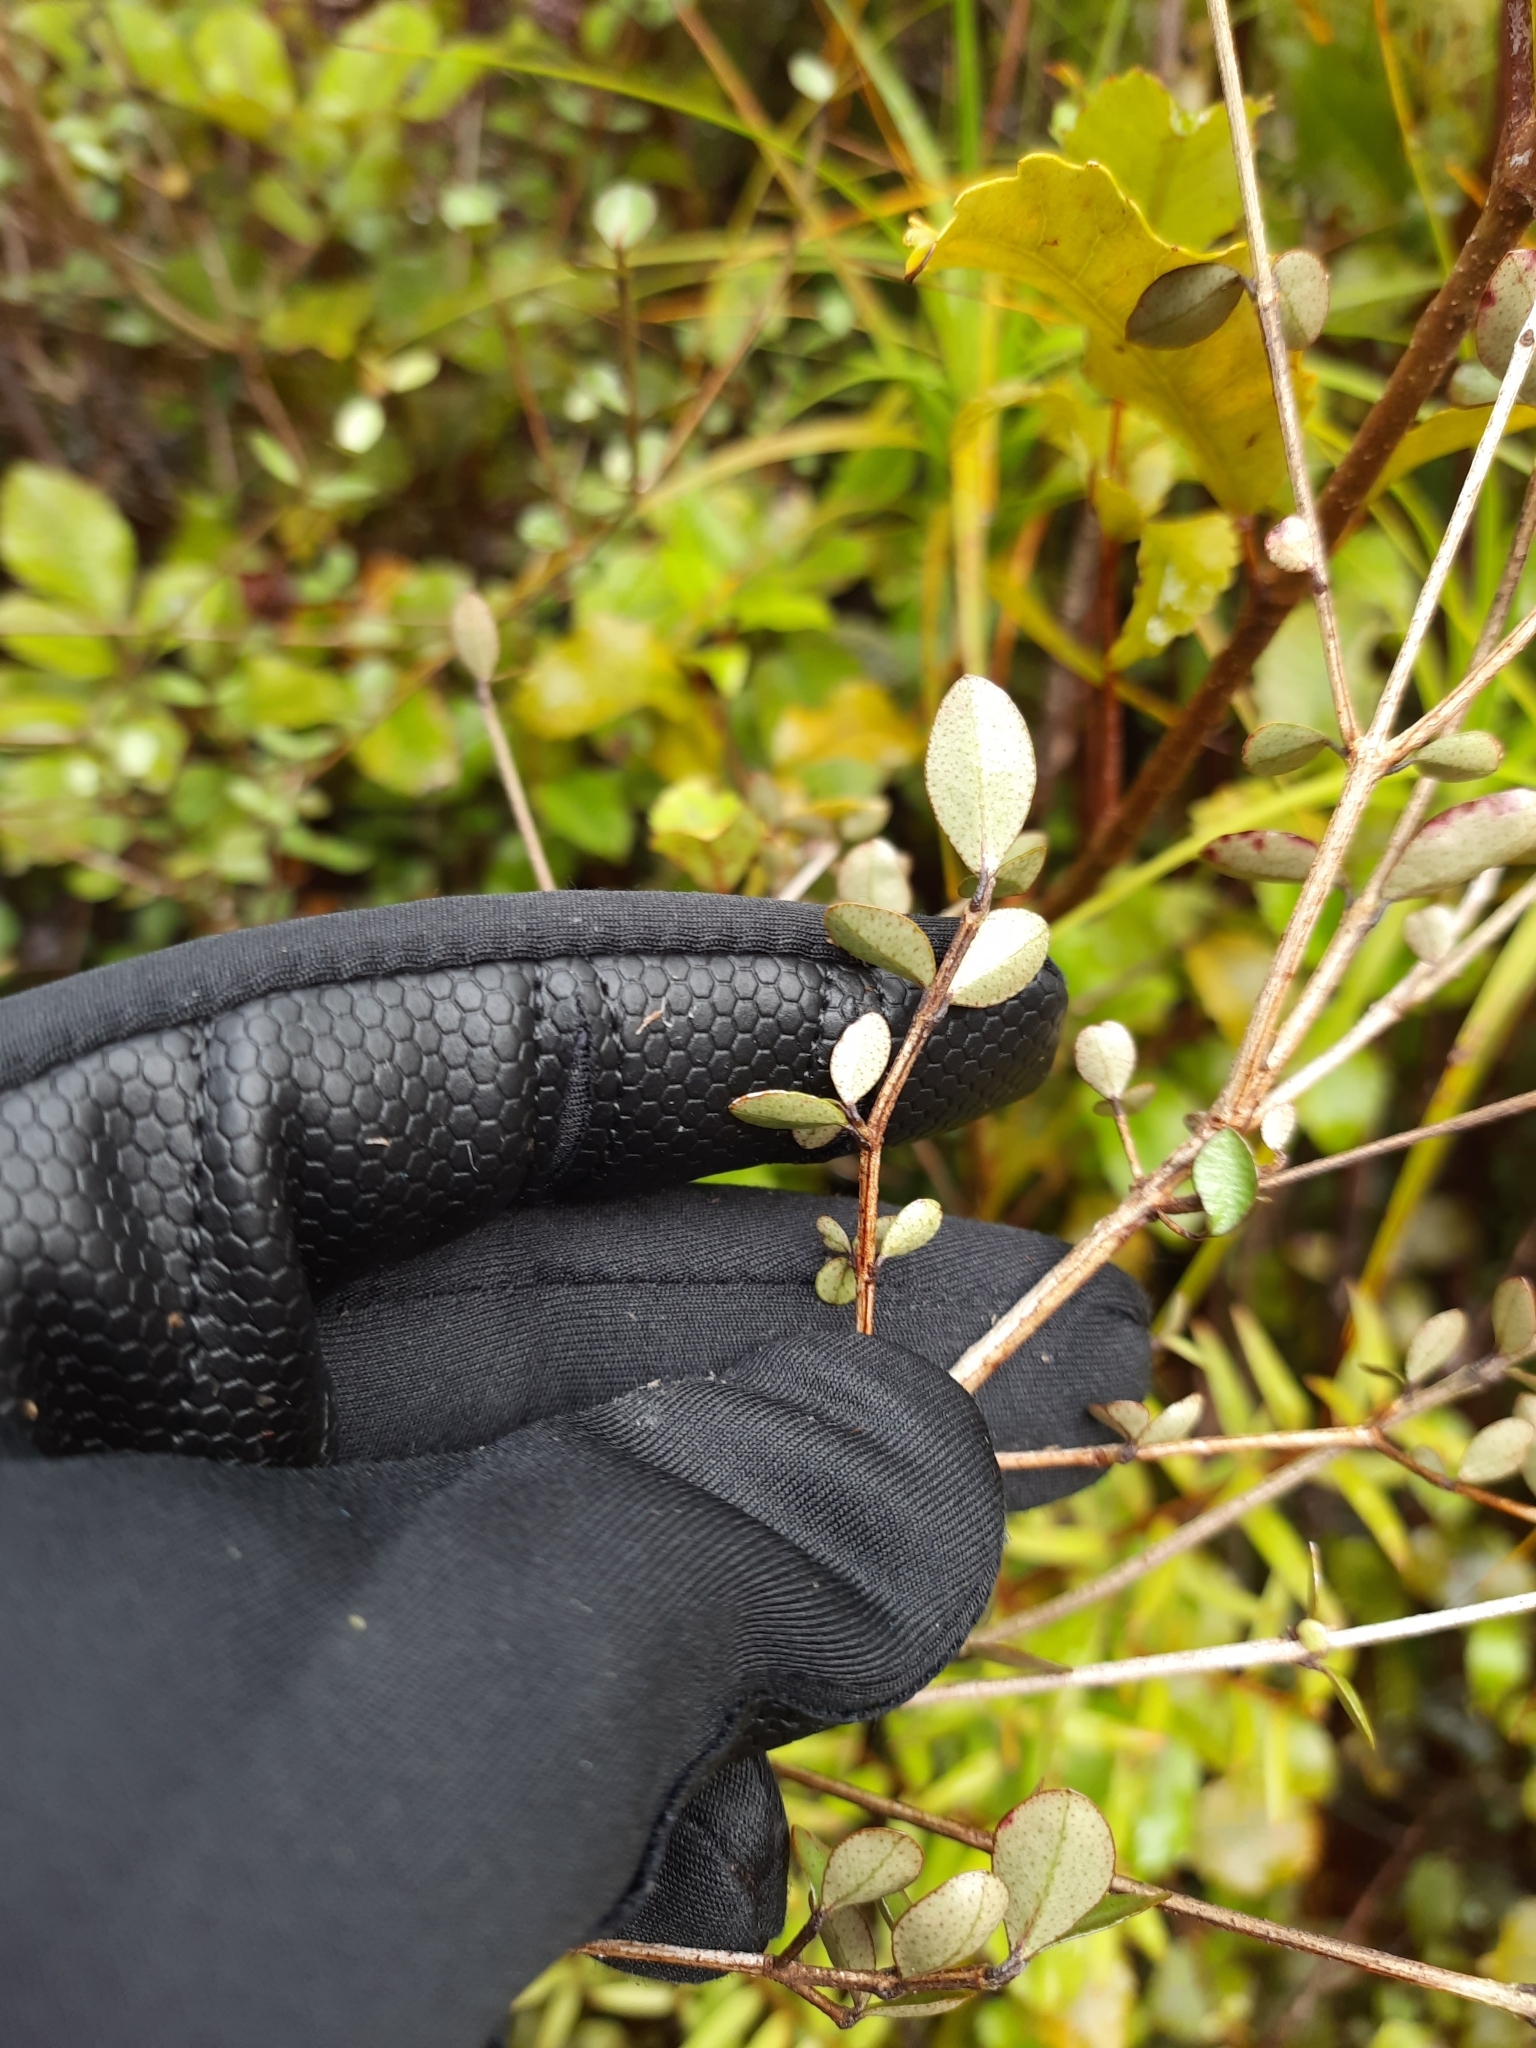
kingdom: Plantae
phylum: Tracheophyta
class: Magnoliopsida
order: Myrtales
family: Myrtaceae
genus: Neomyrtus
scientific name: Neomyrtus pedunculata
